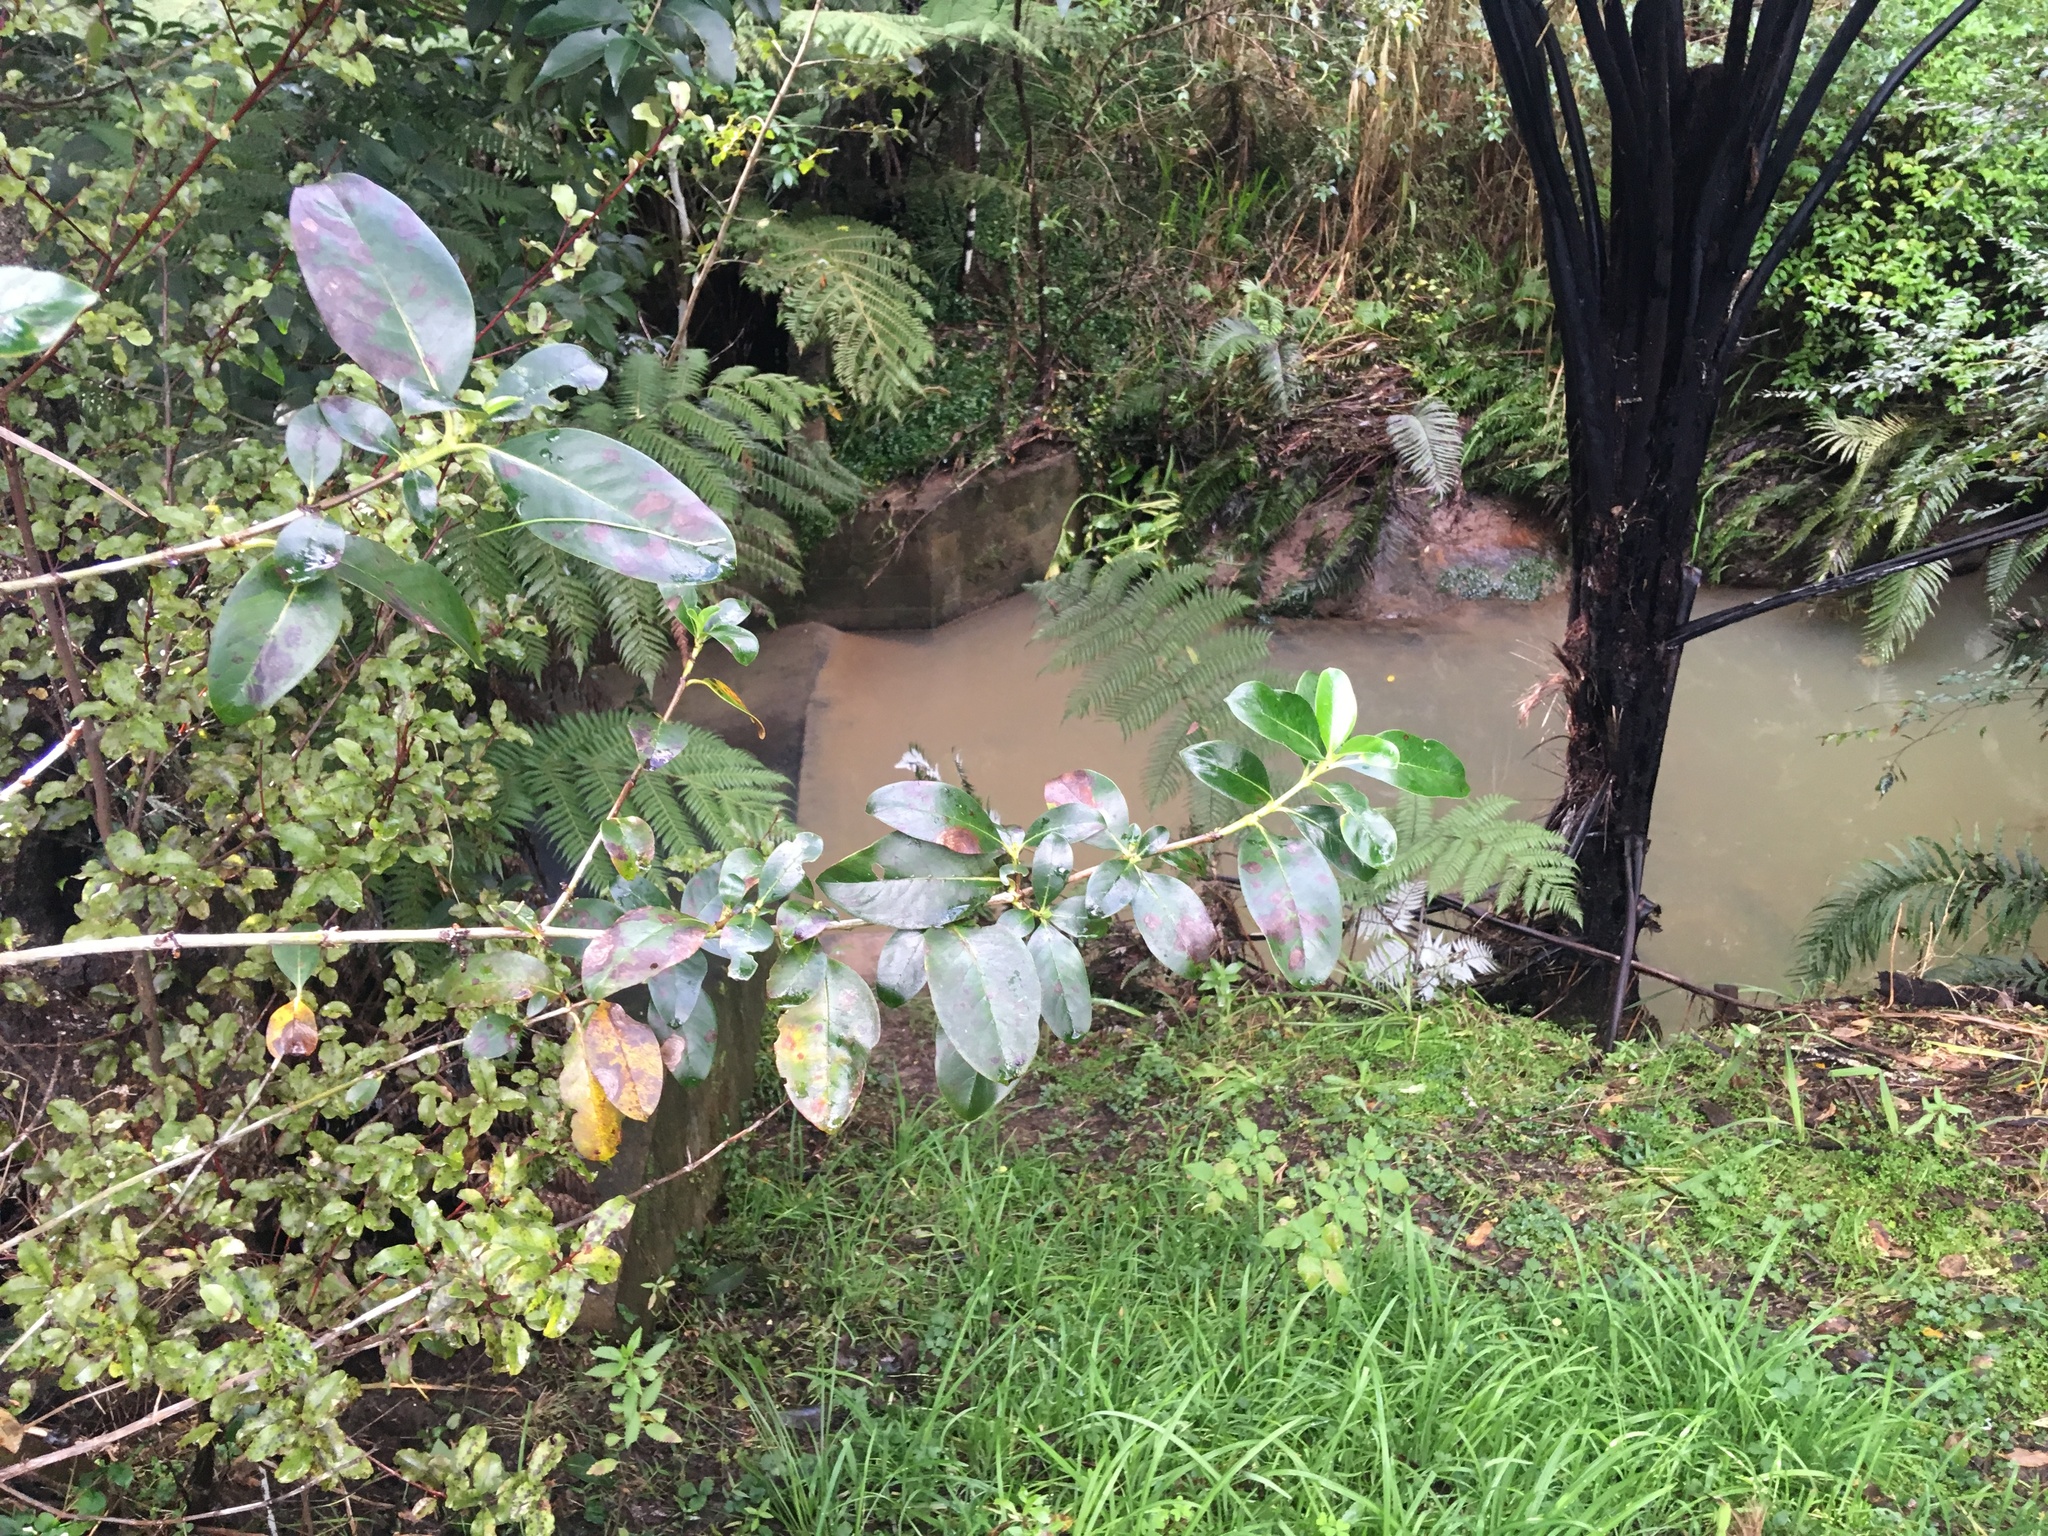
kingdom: Plantae
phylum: Tracheophyta
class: Magnoliopsida
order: Gentianales
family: Rubiaceae
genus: Coprosma
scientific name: Coprosma robusta
